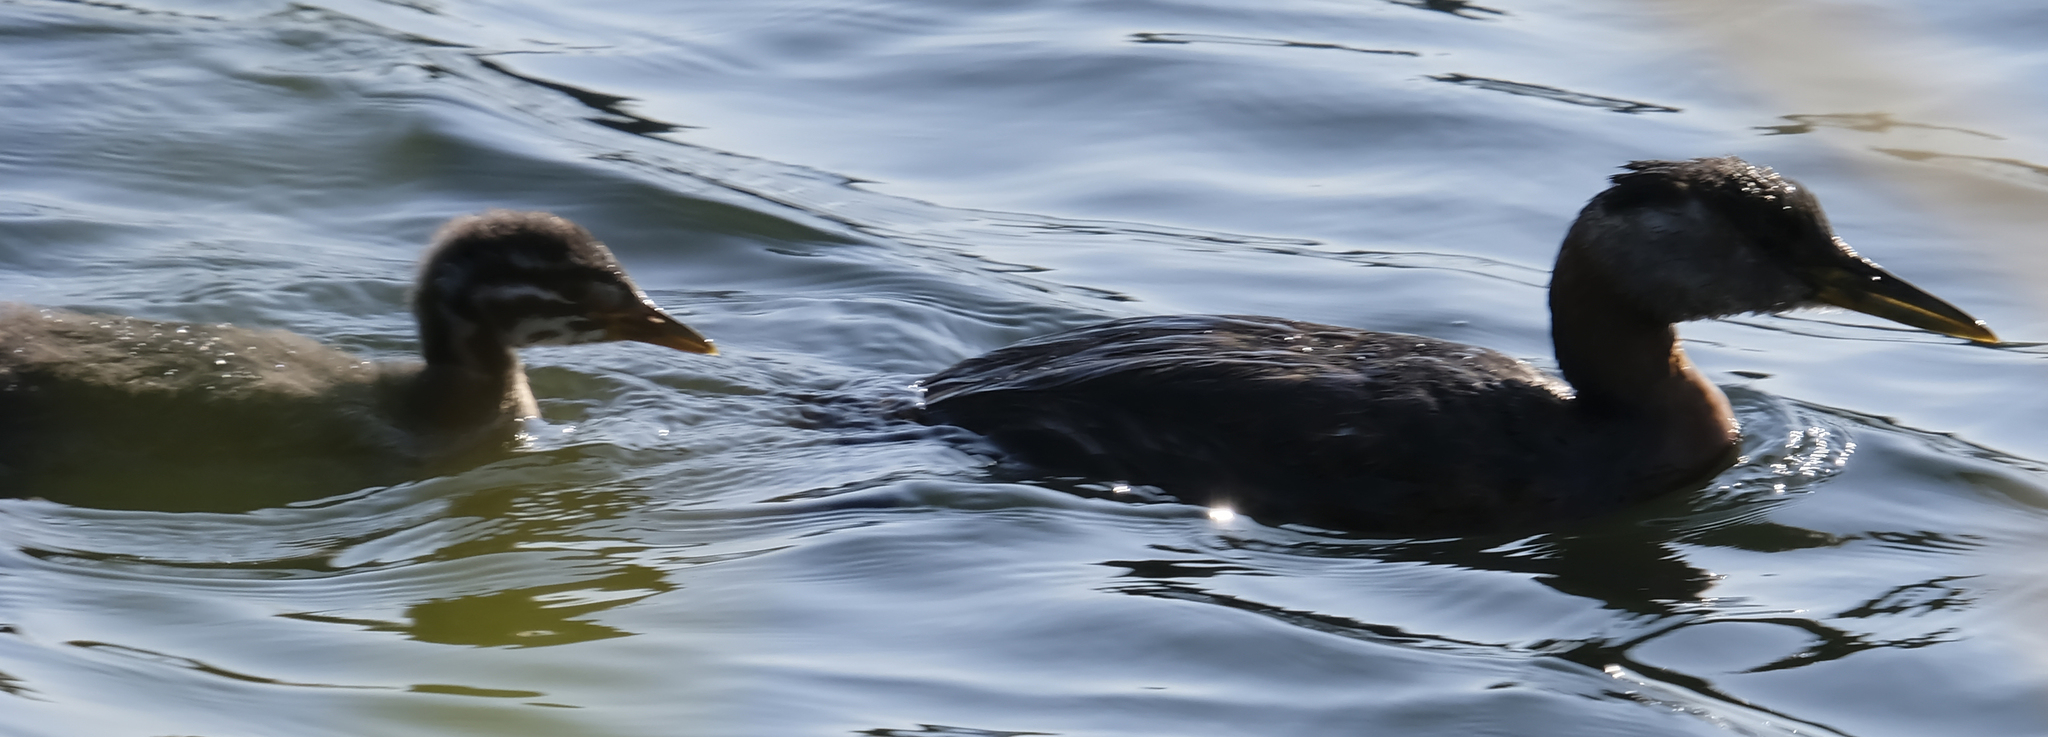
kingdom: Animalia
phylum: Chordata
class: Aves
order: Podicipediformes
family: Podicipedidae
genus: Podiceps
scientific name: Podiceps grisegena
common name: Red-necked grebe
